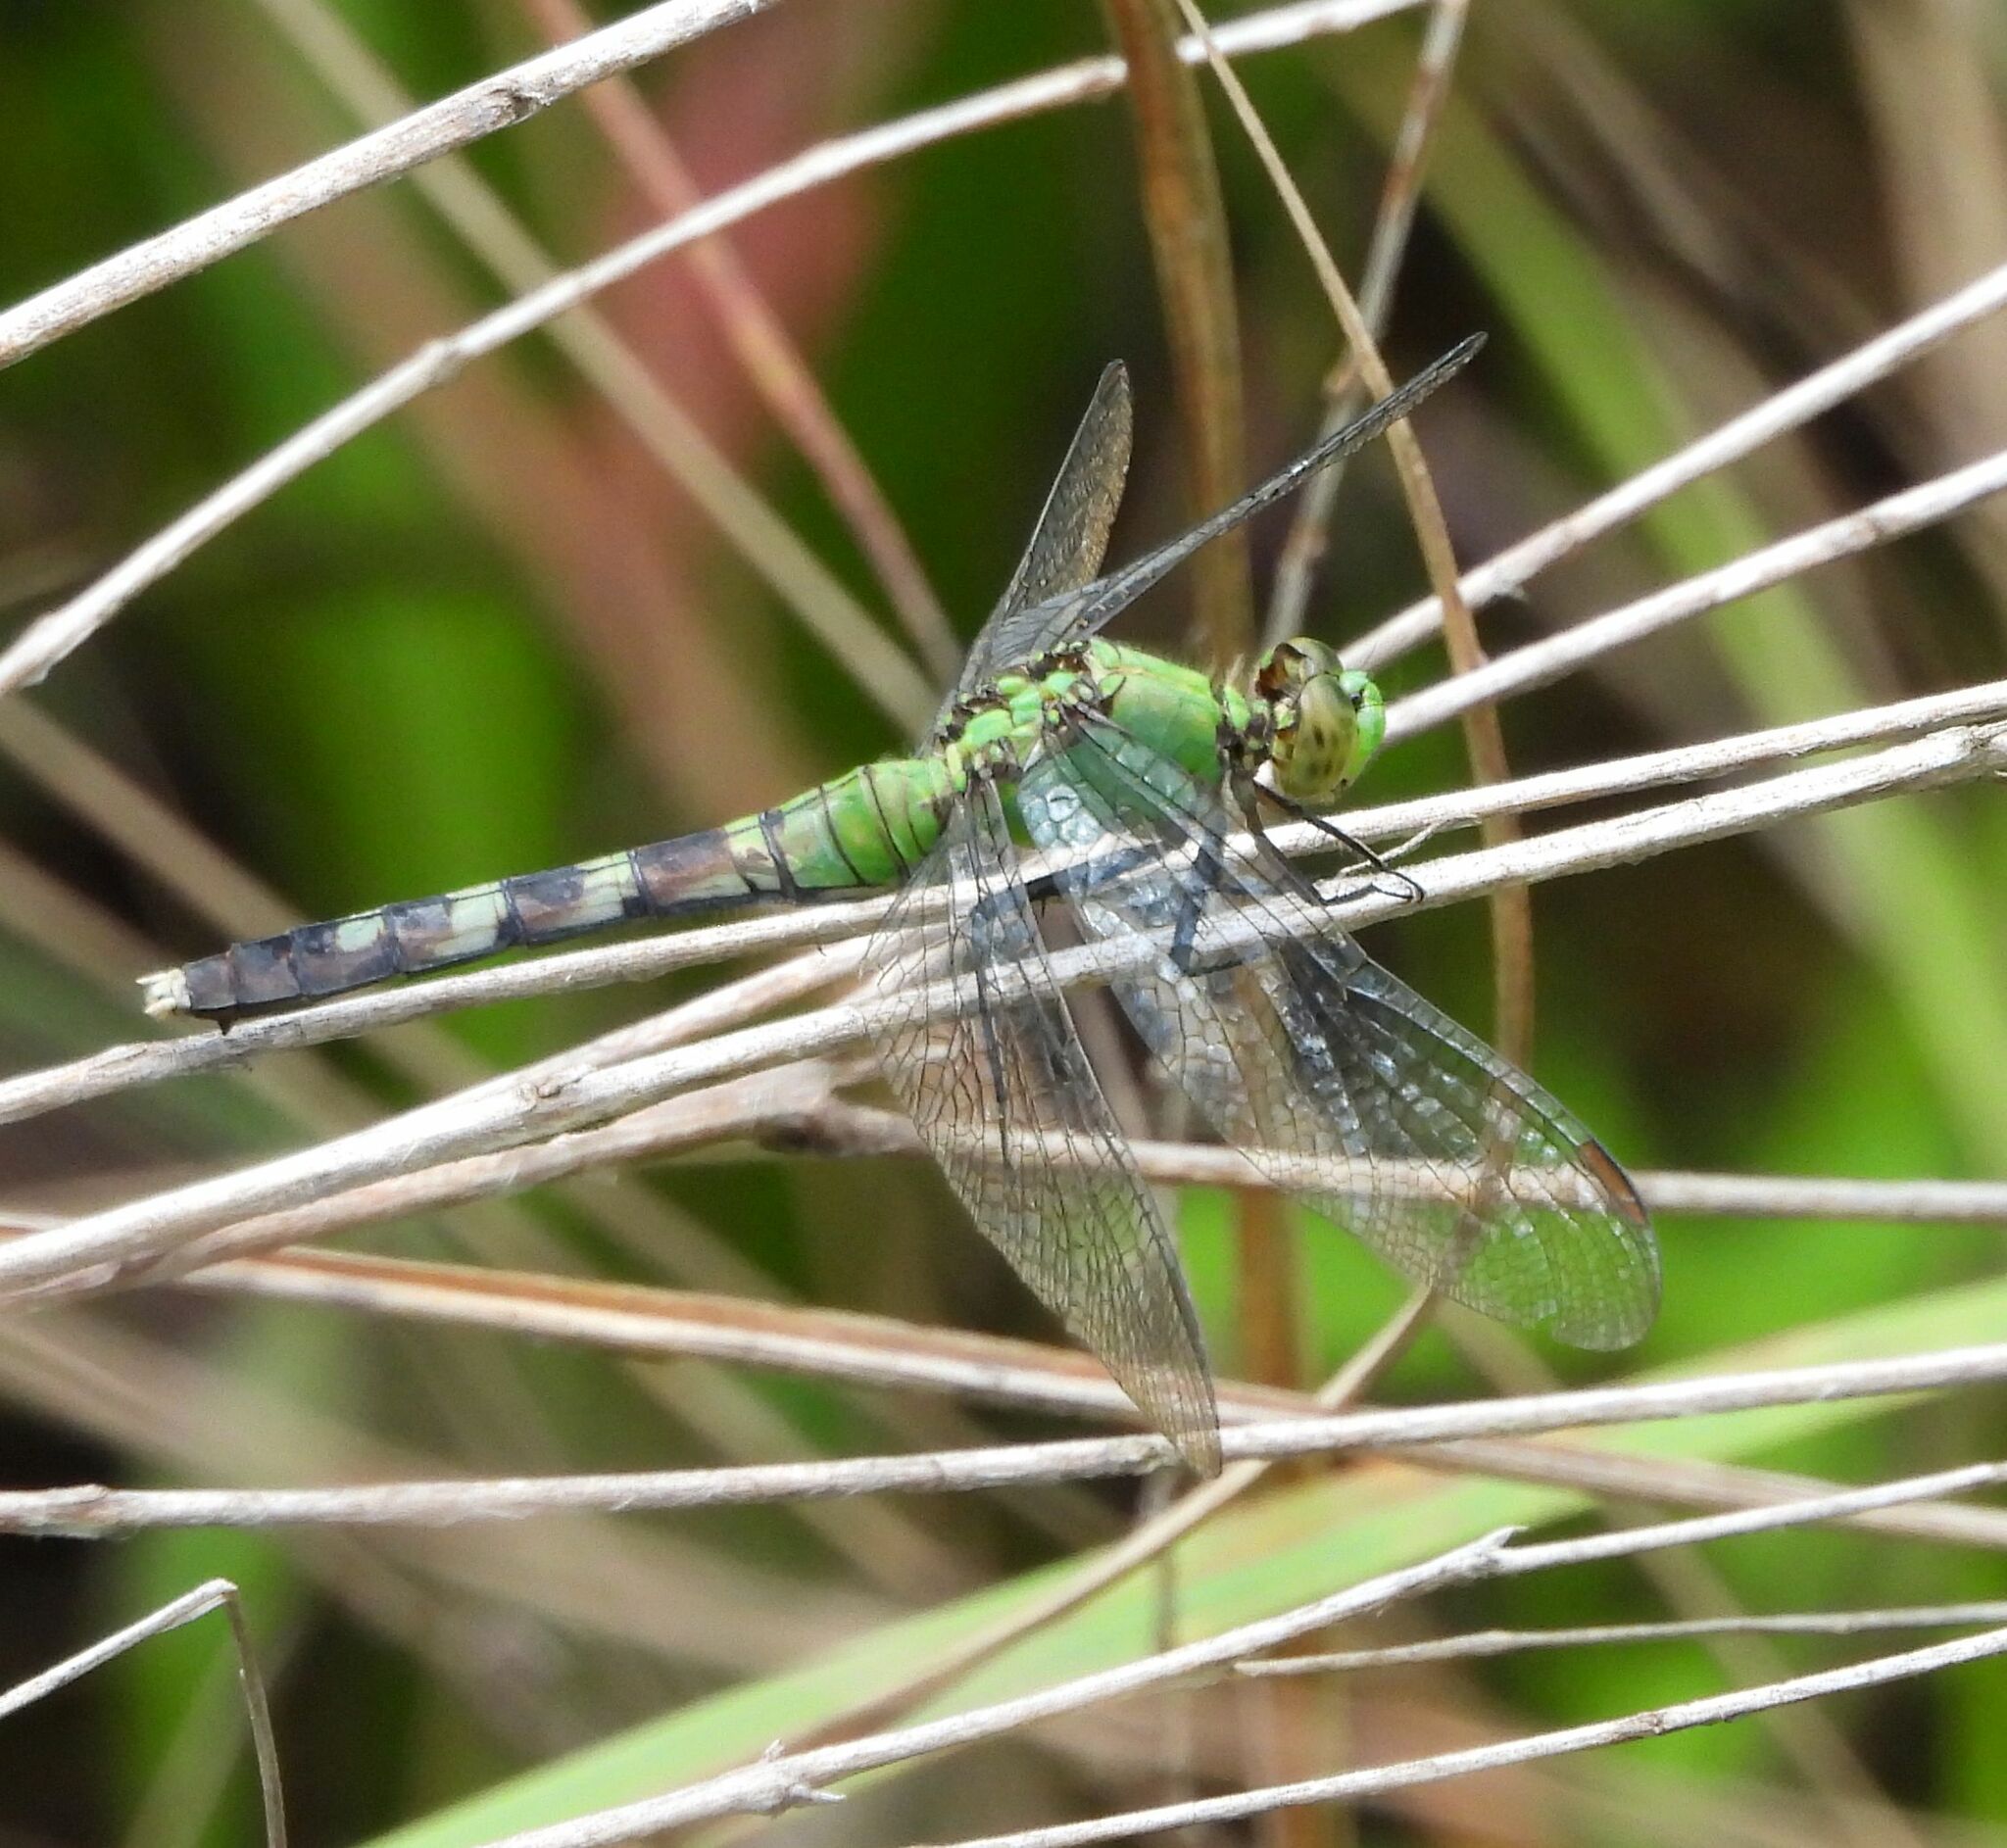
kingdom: Animalia
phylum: Arthropoda
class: Insecta
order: Odonata
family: Libellulidae
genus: Erythemis
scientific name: Erythemis simplicicollis
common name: Eastern pondhawk
